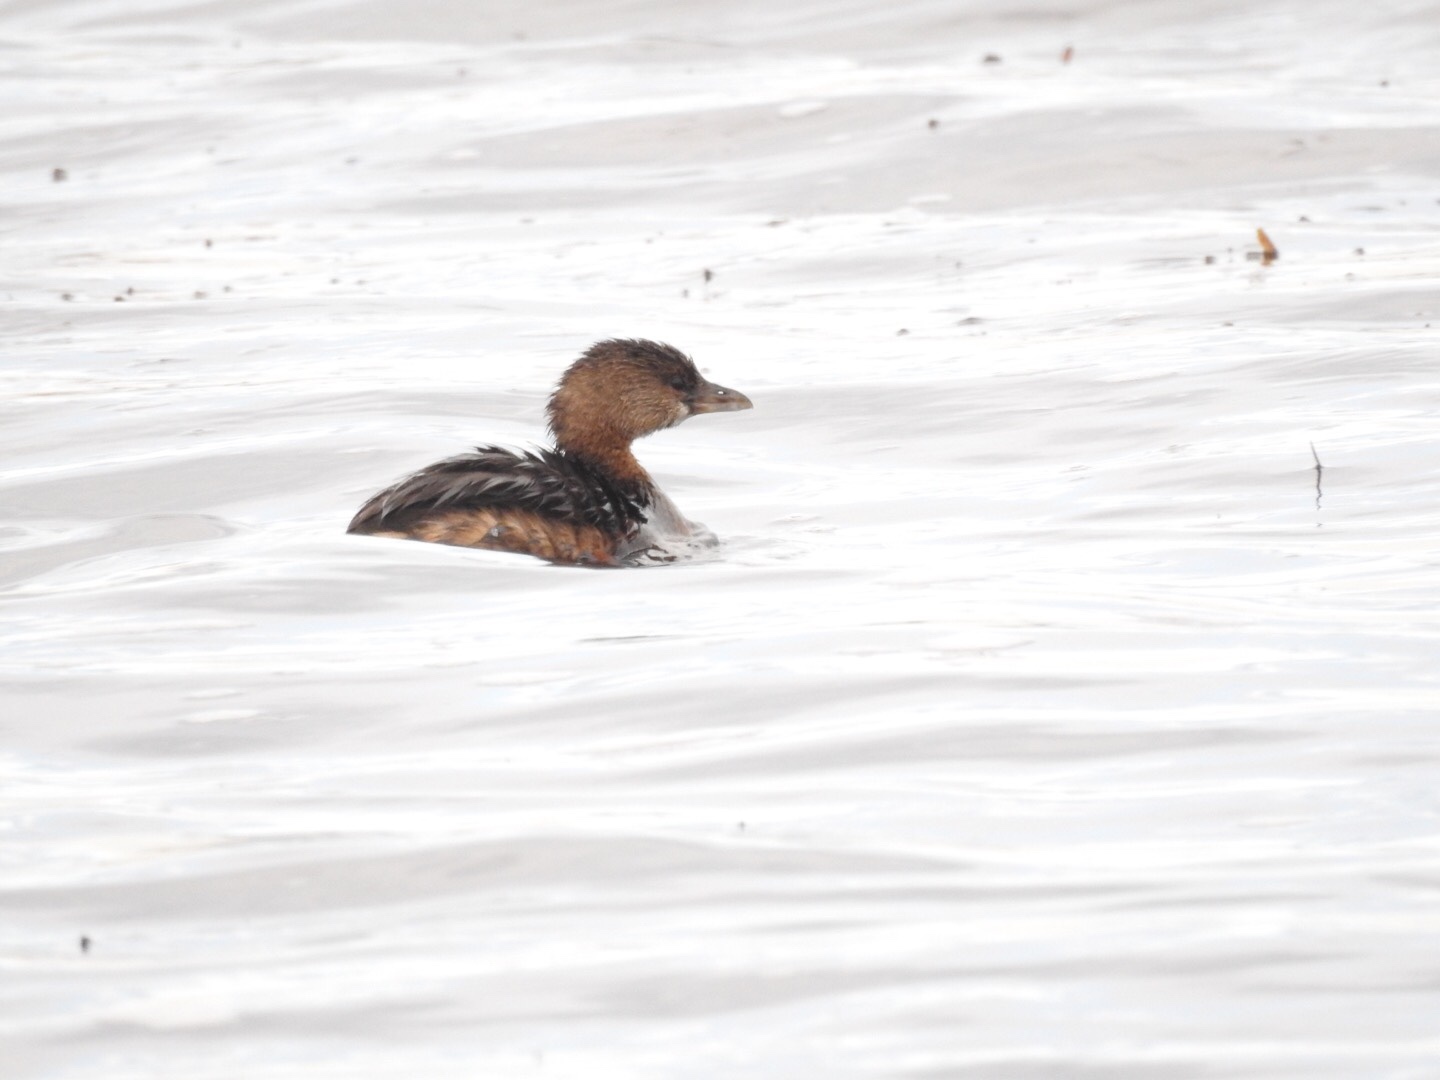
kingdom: Animalia
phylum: Chordata
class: Aves
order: Podicipediformes
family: Podicipedidae
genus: Podilymbus
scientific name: Podilymbus podiceps
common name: Pied-billed grebe
